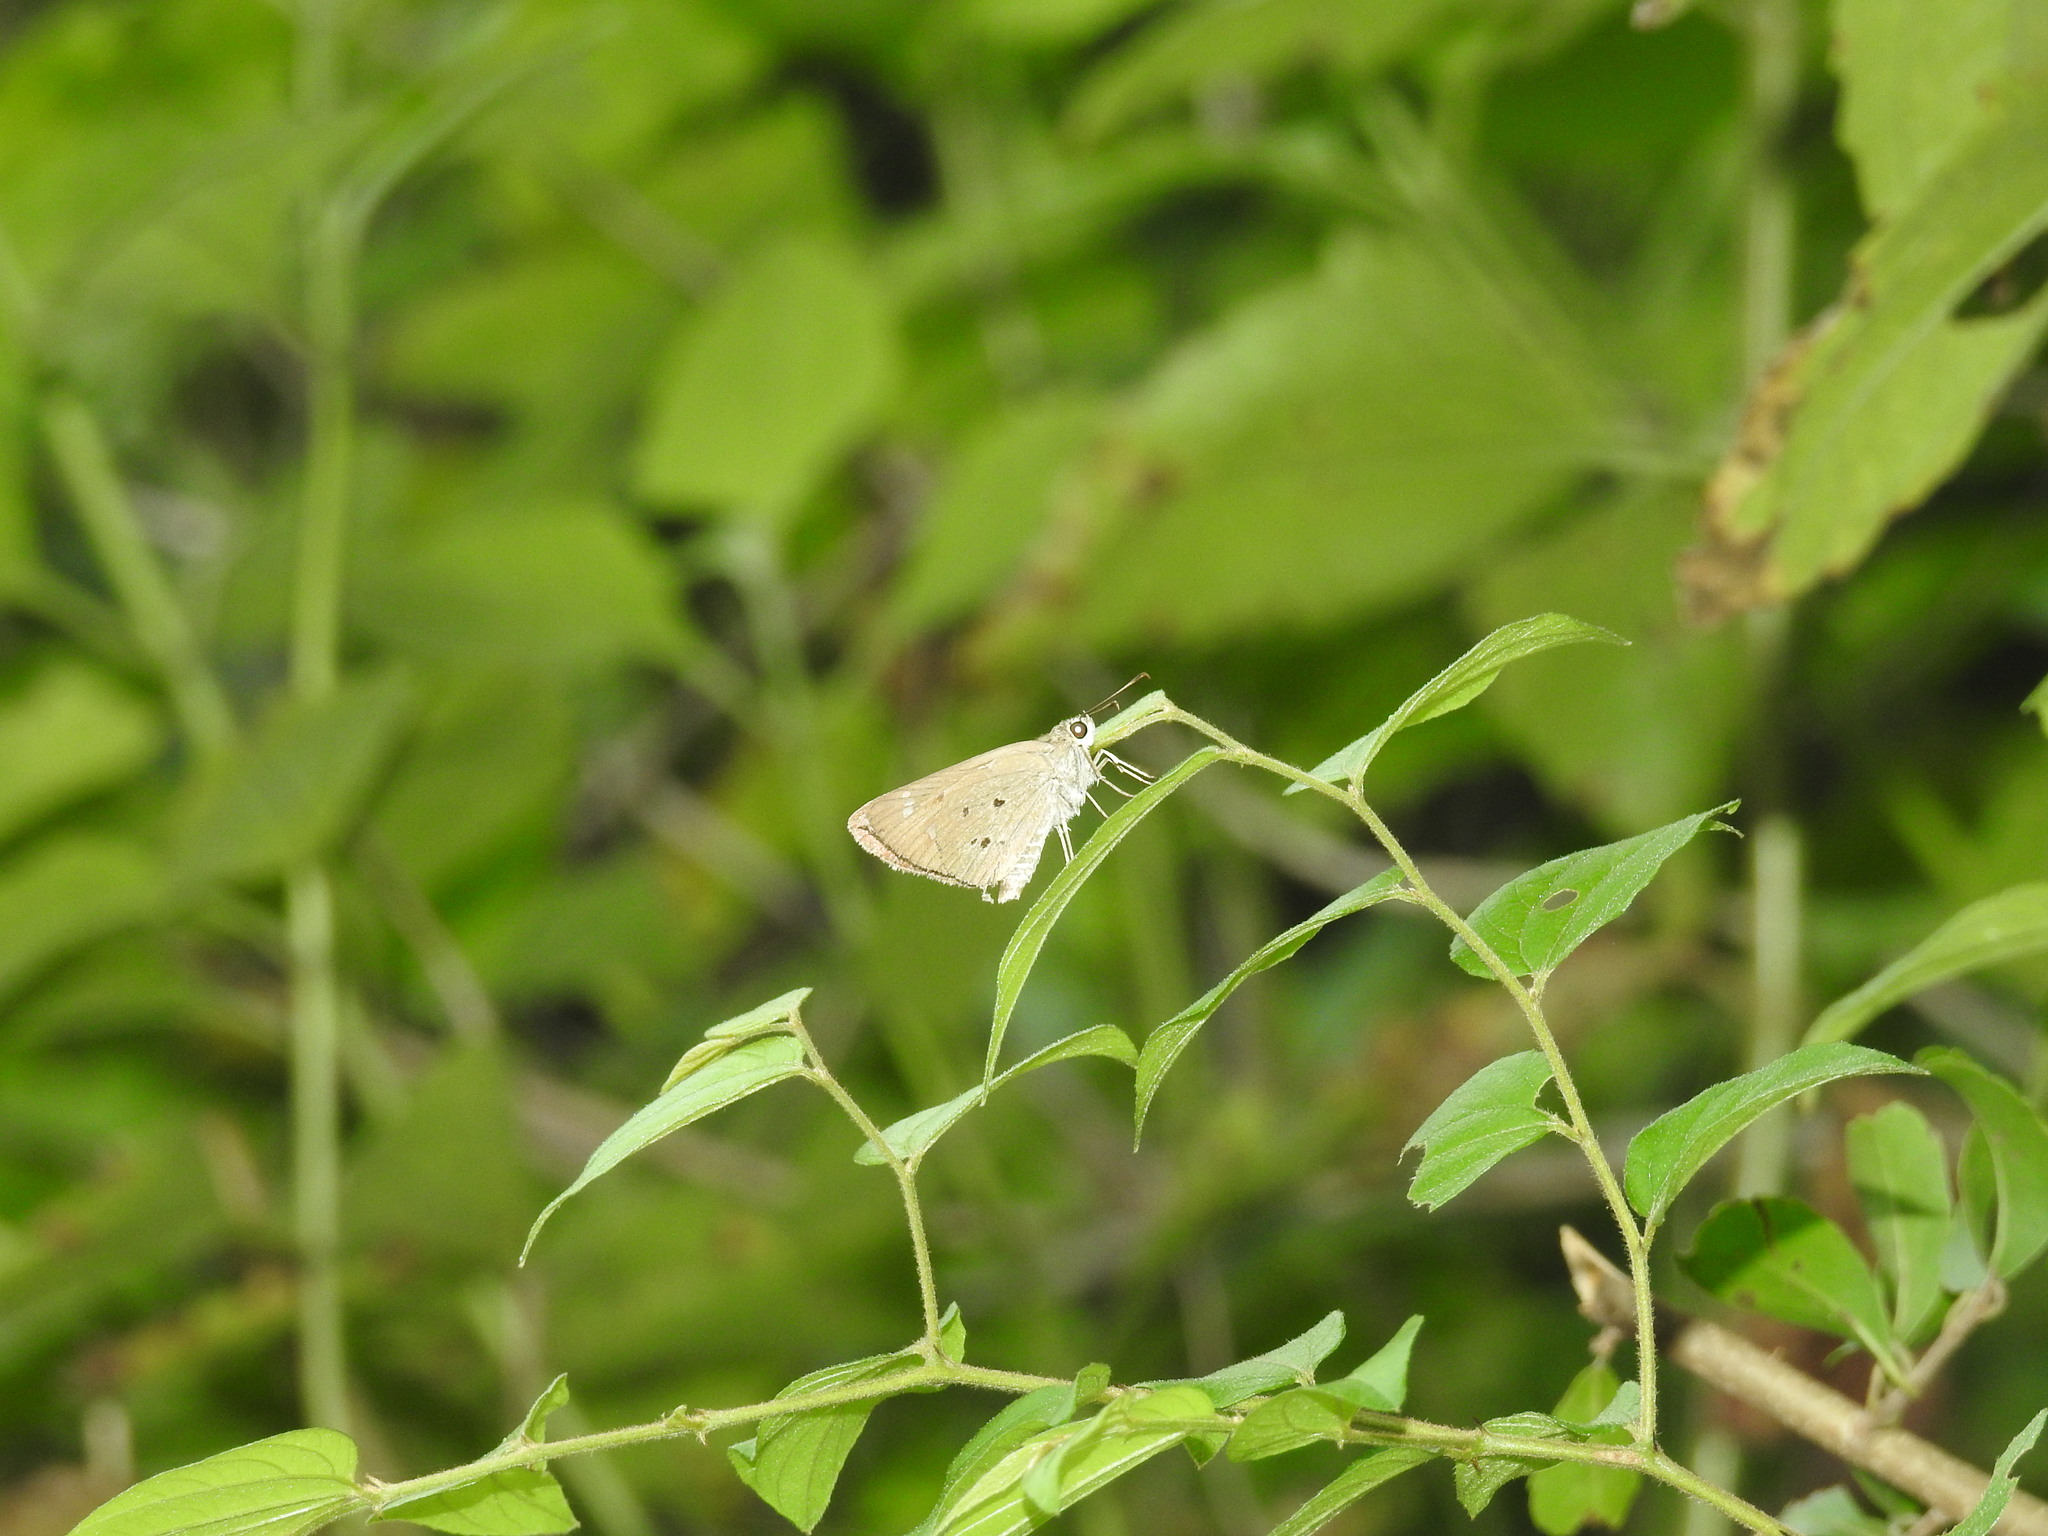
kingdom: Animalia
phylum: Arthropoda
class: Insecta
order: Lepidoptera
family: Hesperiidae
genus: Suastus
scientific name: Suastus gremius
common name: Indian palm bob
